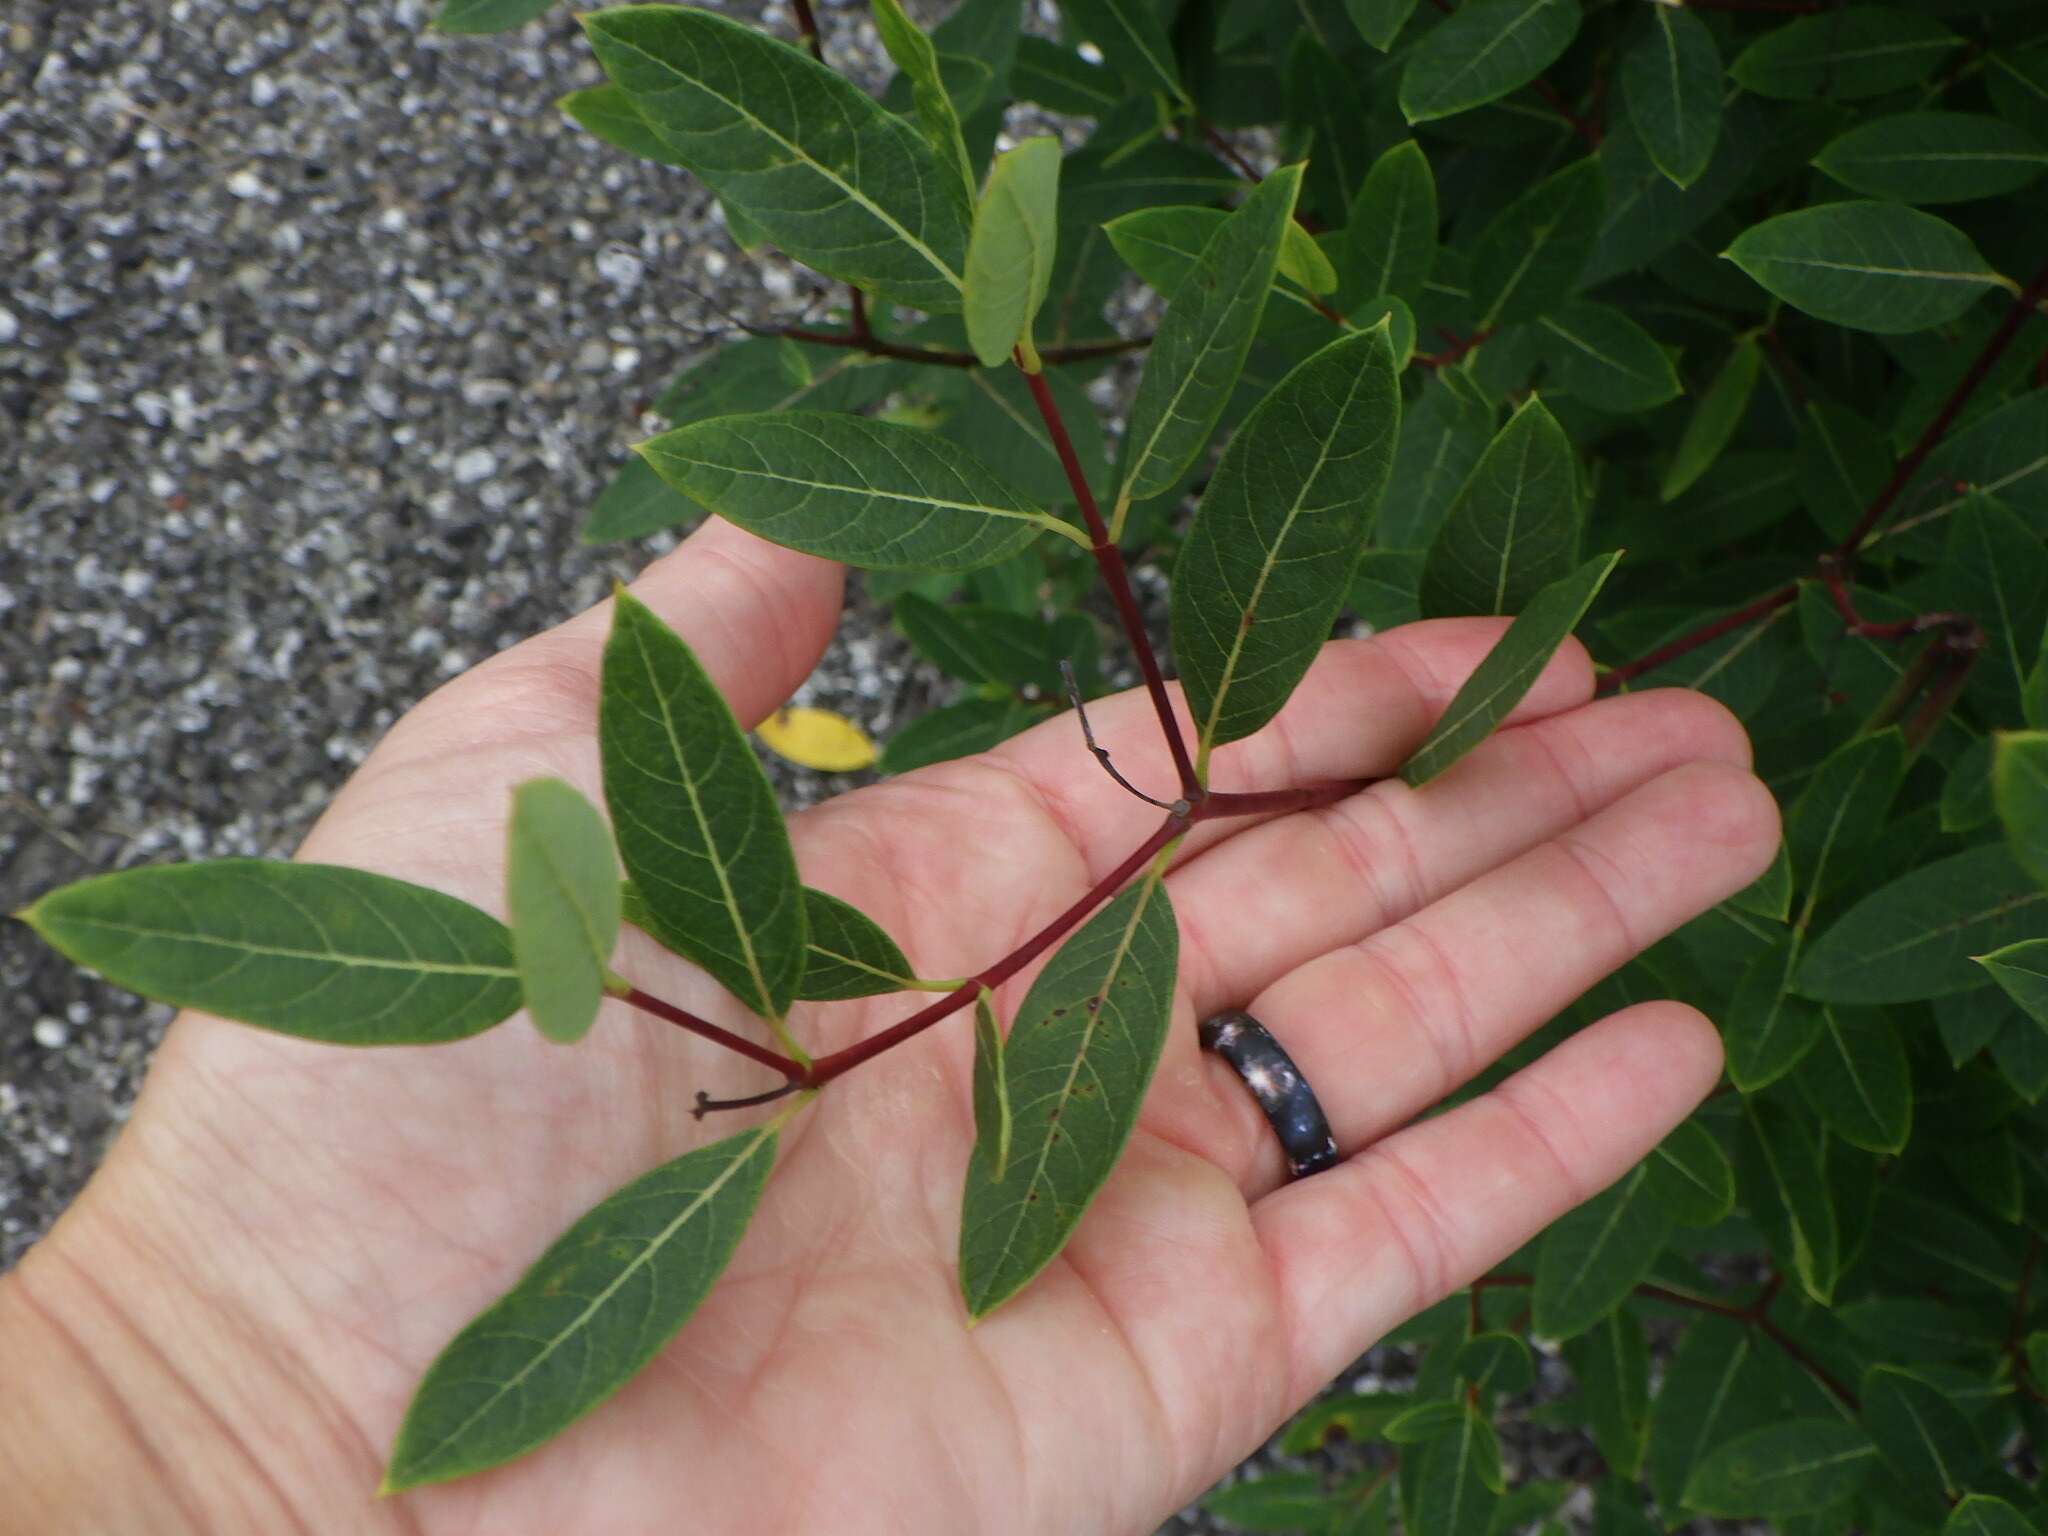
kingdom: Plantae
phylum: Tracheophyta
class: Magnoliopsida
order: Gentianales
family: Apocynaceae
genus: Apocynum
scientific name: Apocynum cannabinum
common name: Hemp dogbane
